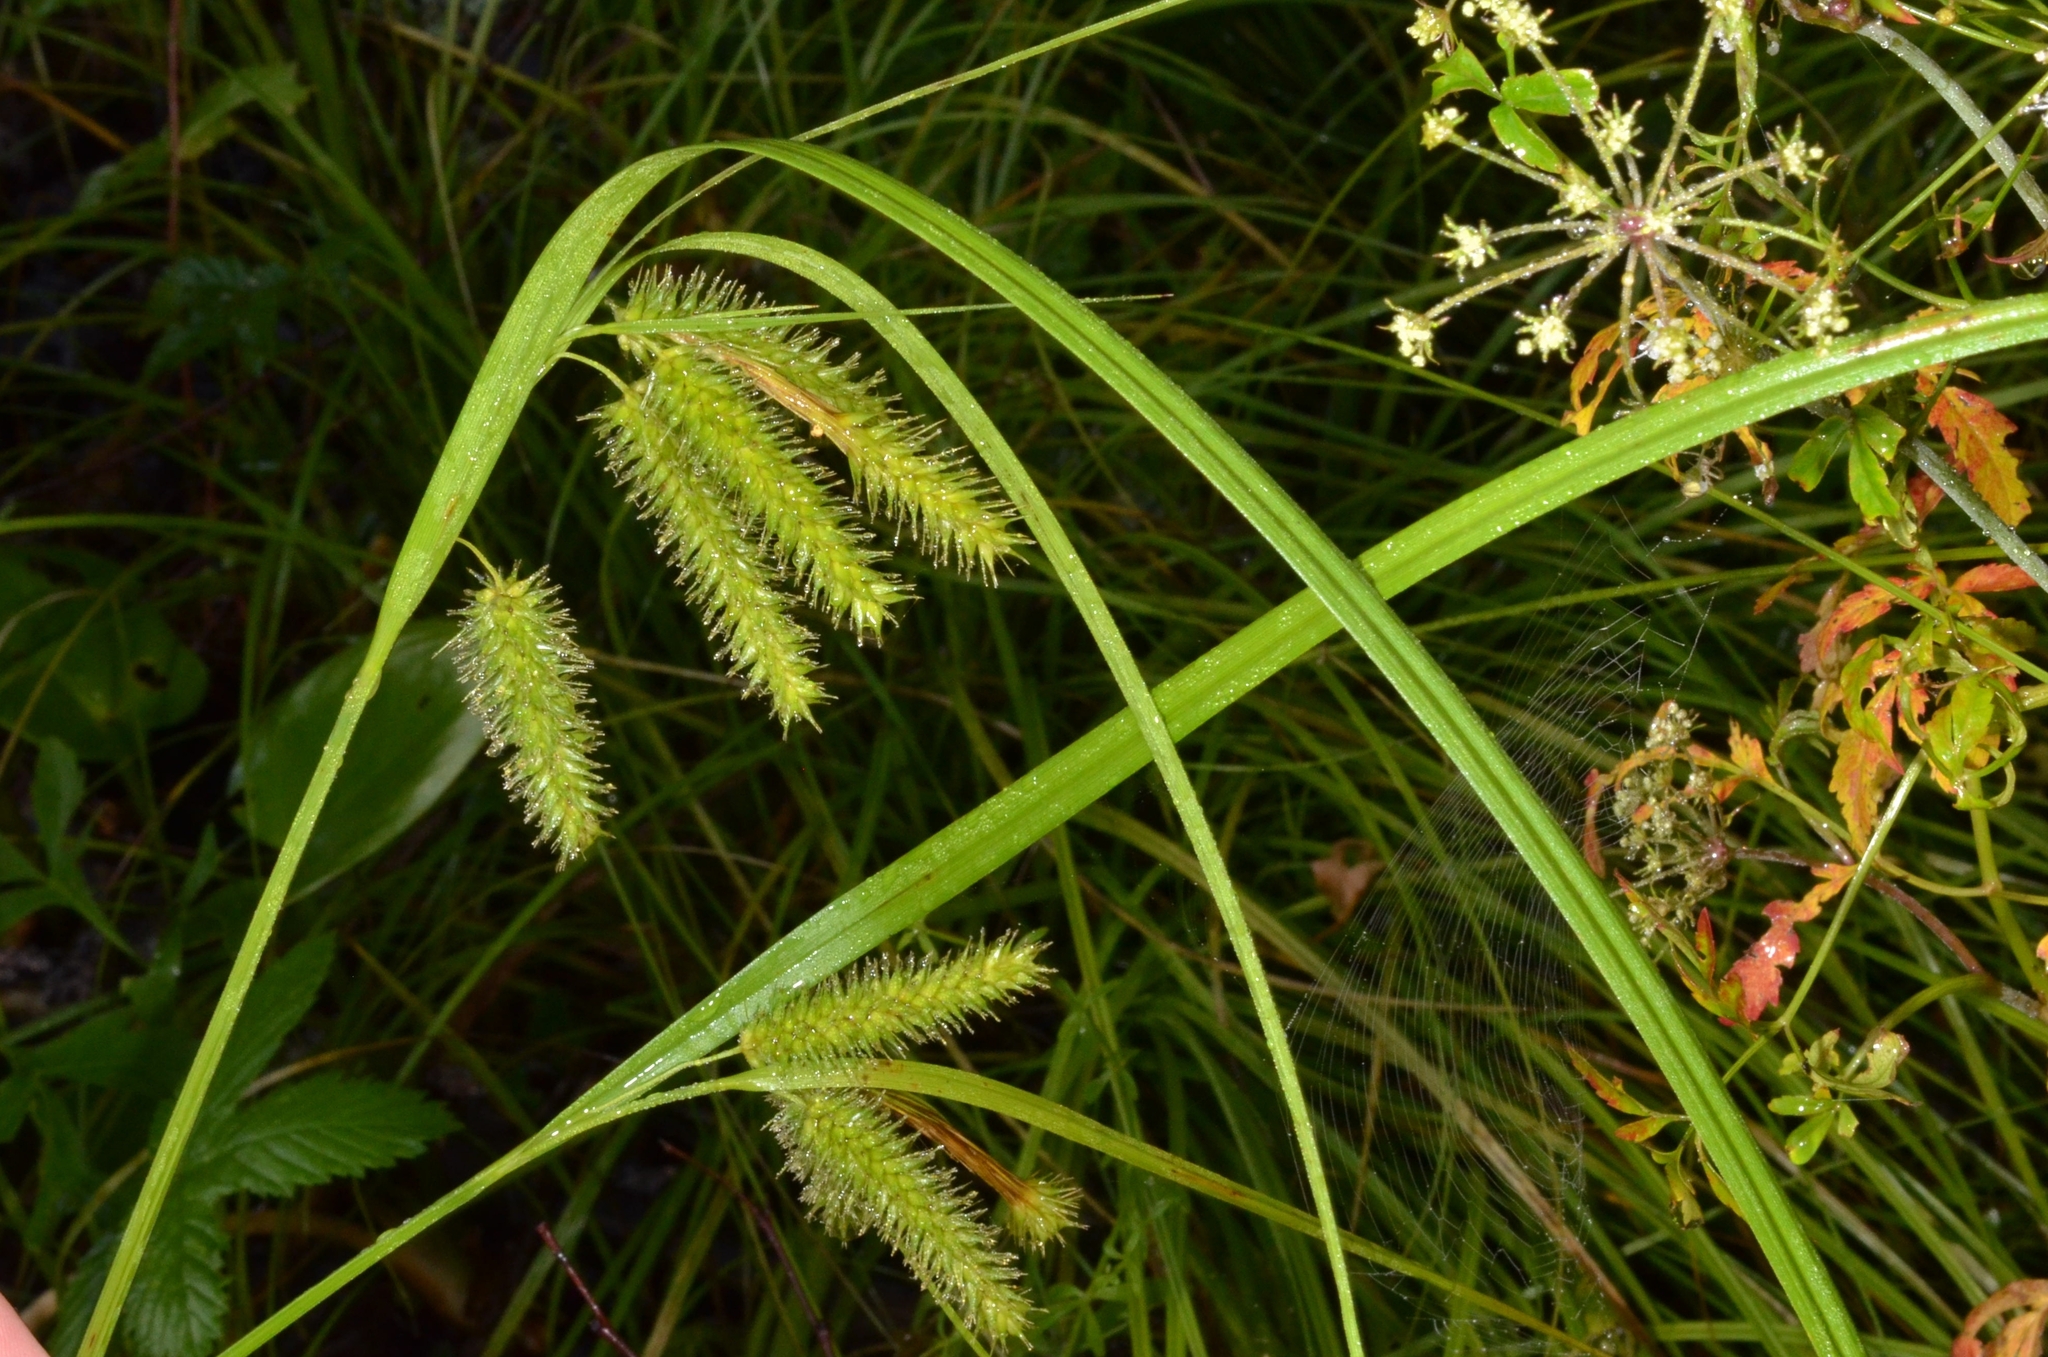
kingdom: Plantae
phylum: Tracheophyta
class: Liliopsida
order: Poales
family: Cyperaceae
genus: Carex
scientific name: Carex pseudocyperus
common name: Cyperus sedge
